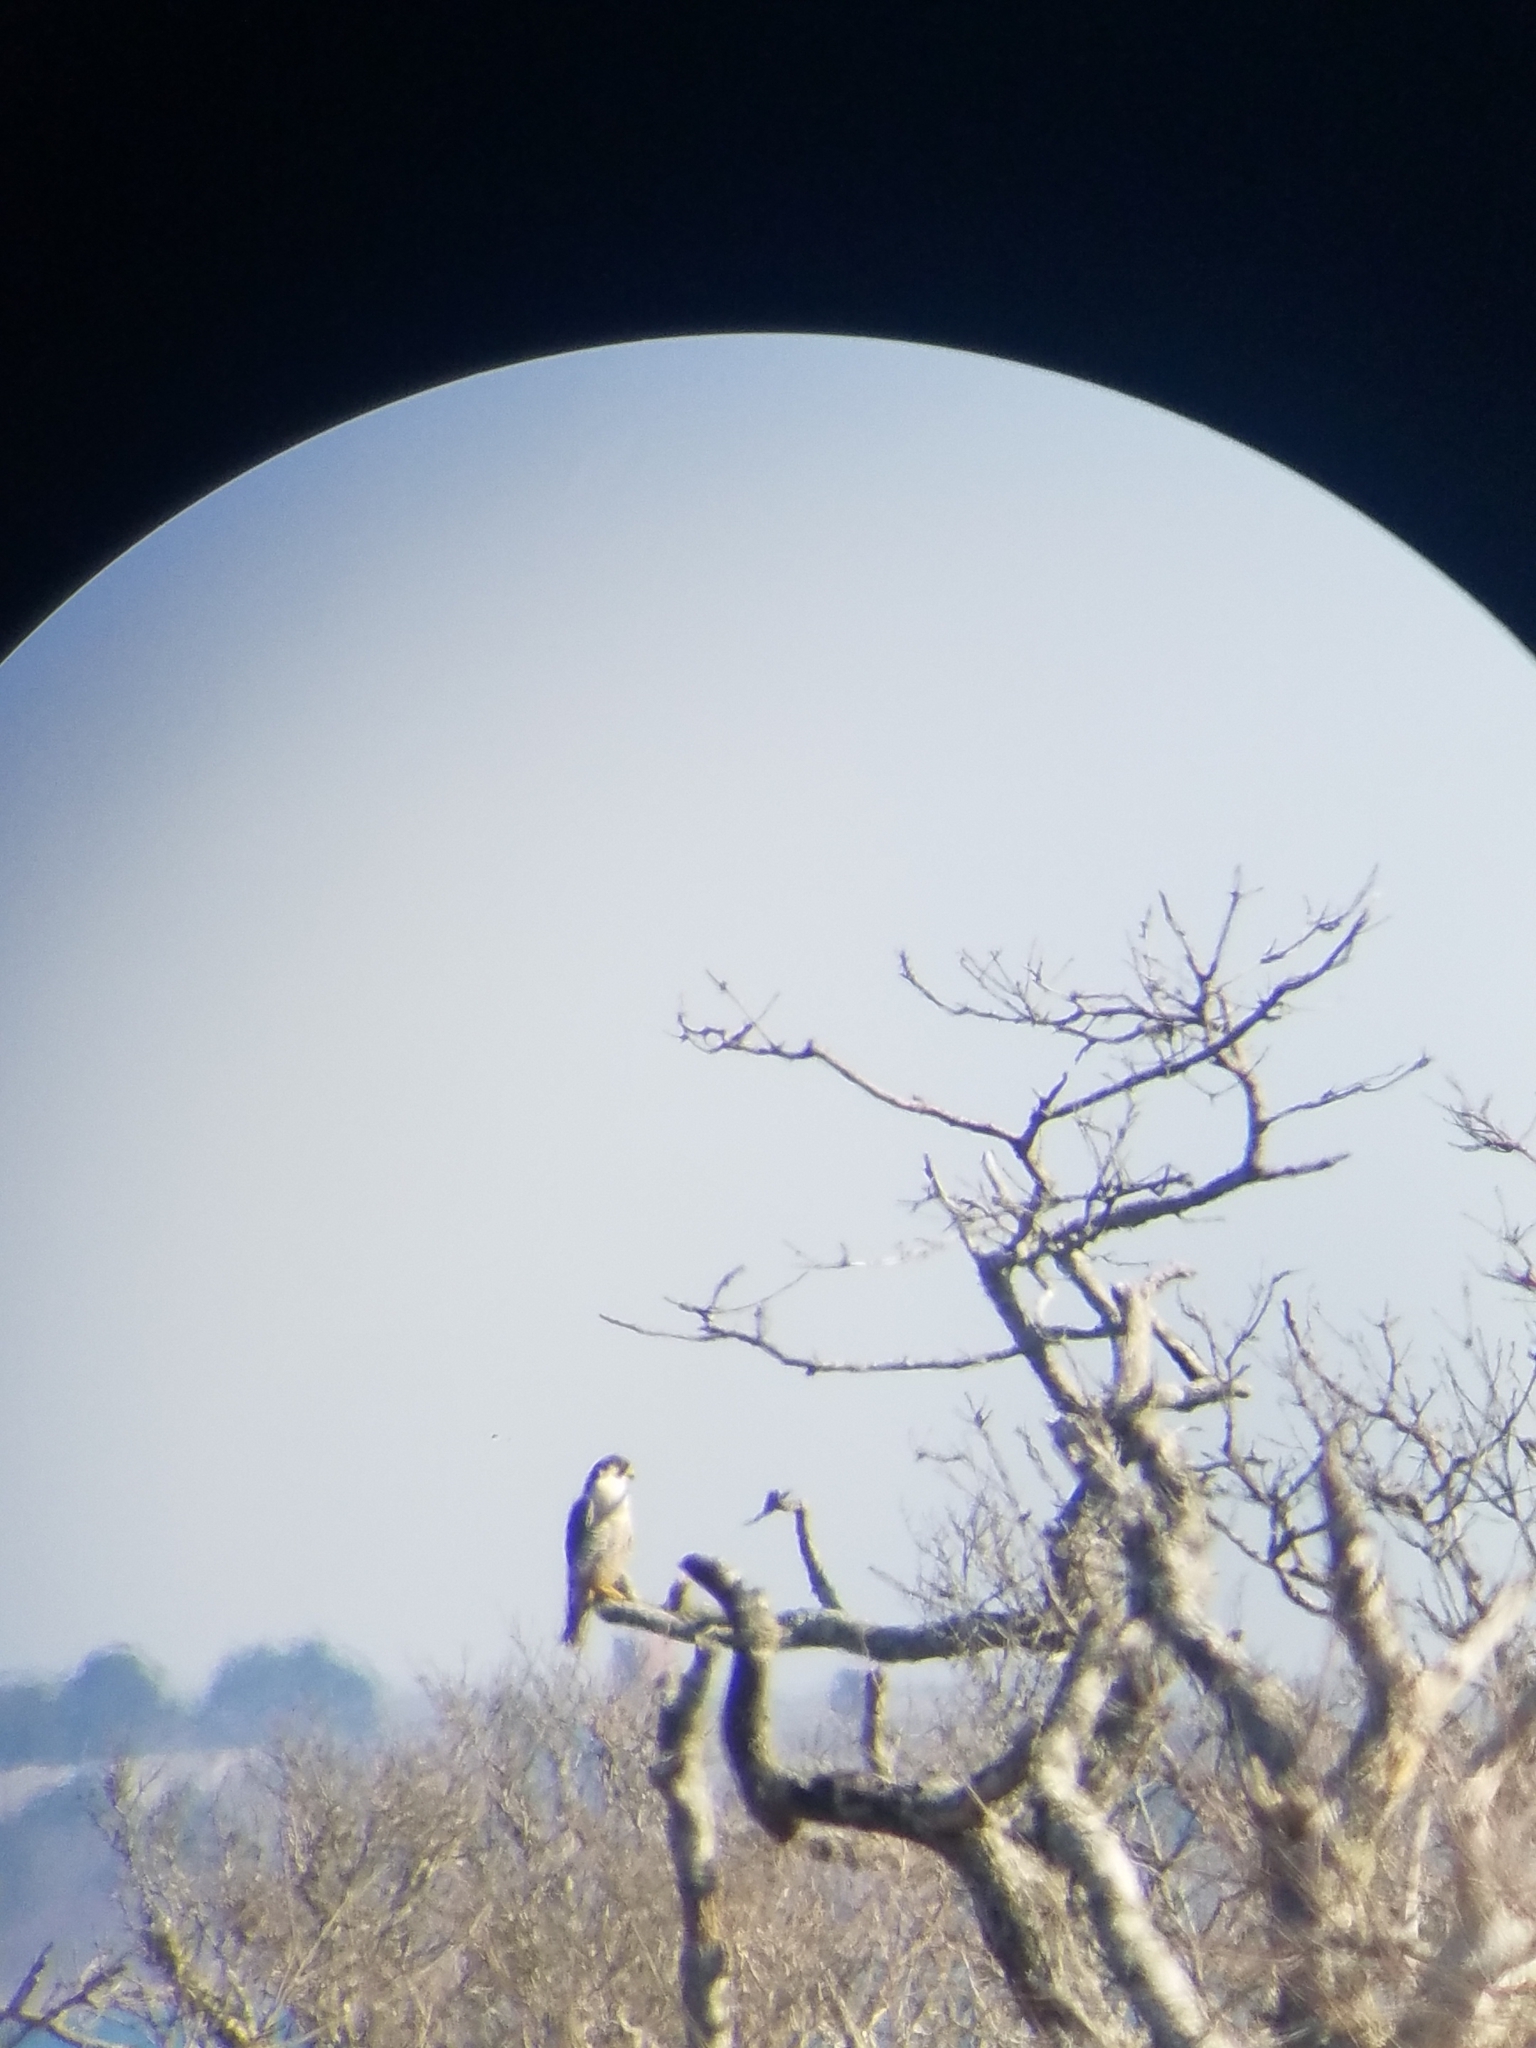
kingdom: Animalia
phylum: Chordata
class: Aves
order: Falconiformes
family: Falconidae
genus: Falco
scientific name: Falco peregrinus
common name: Peregrine falcon
